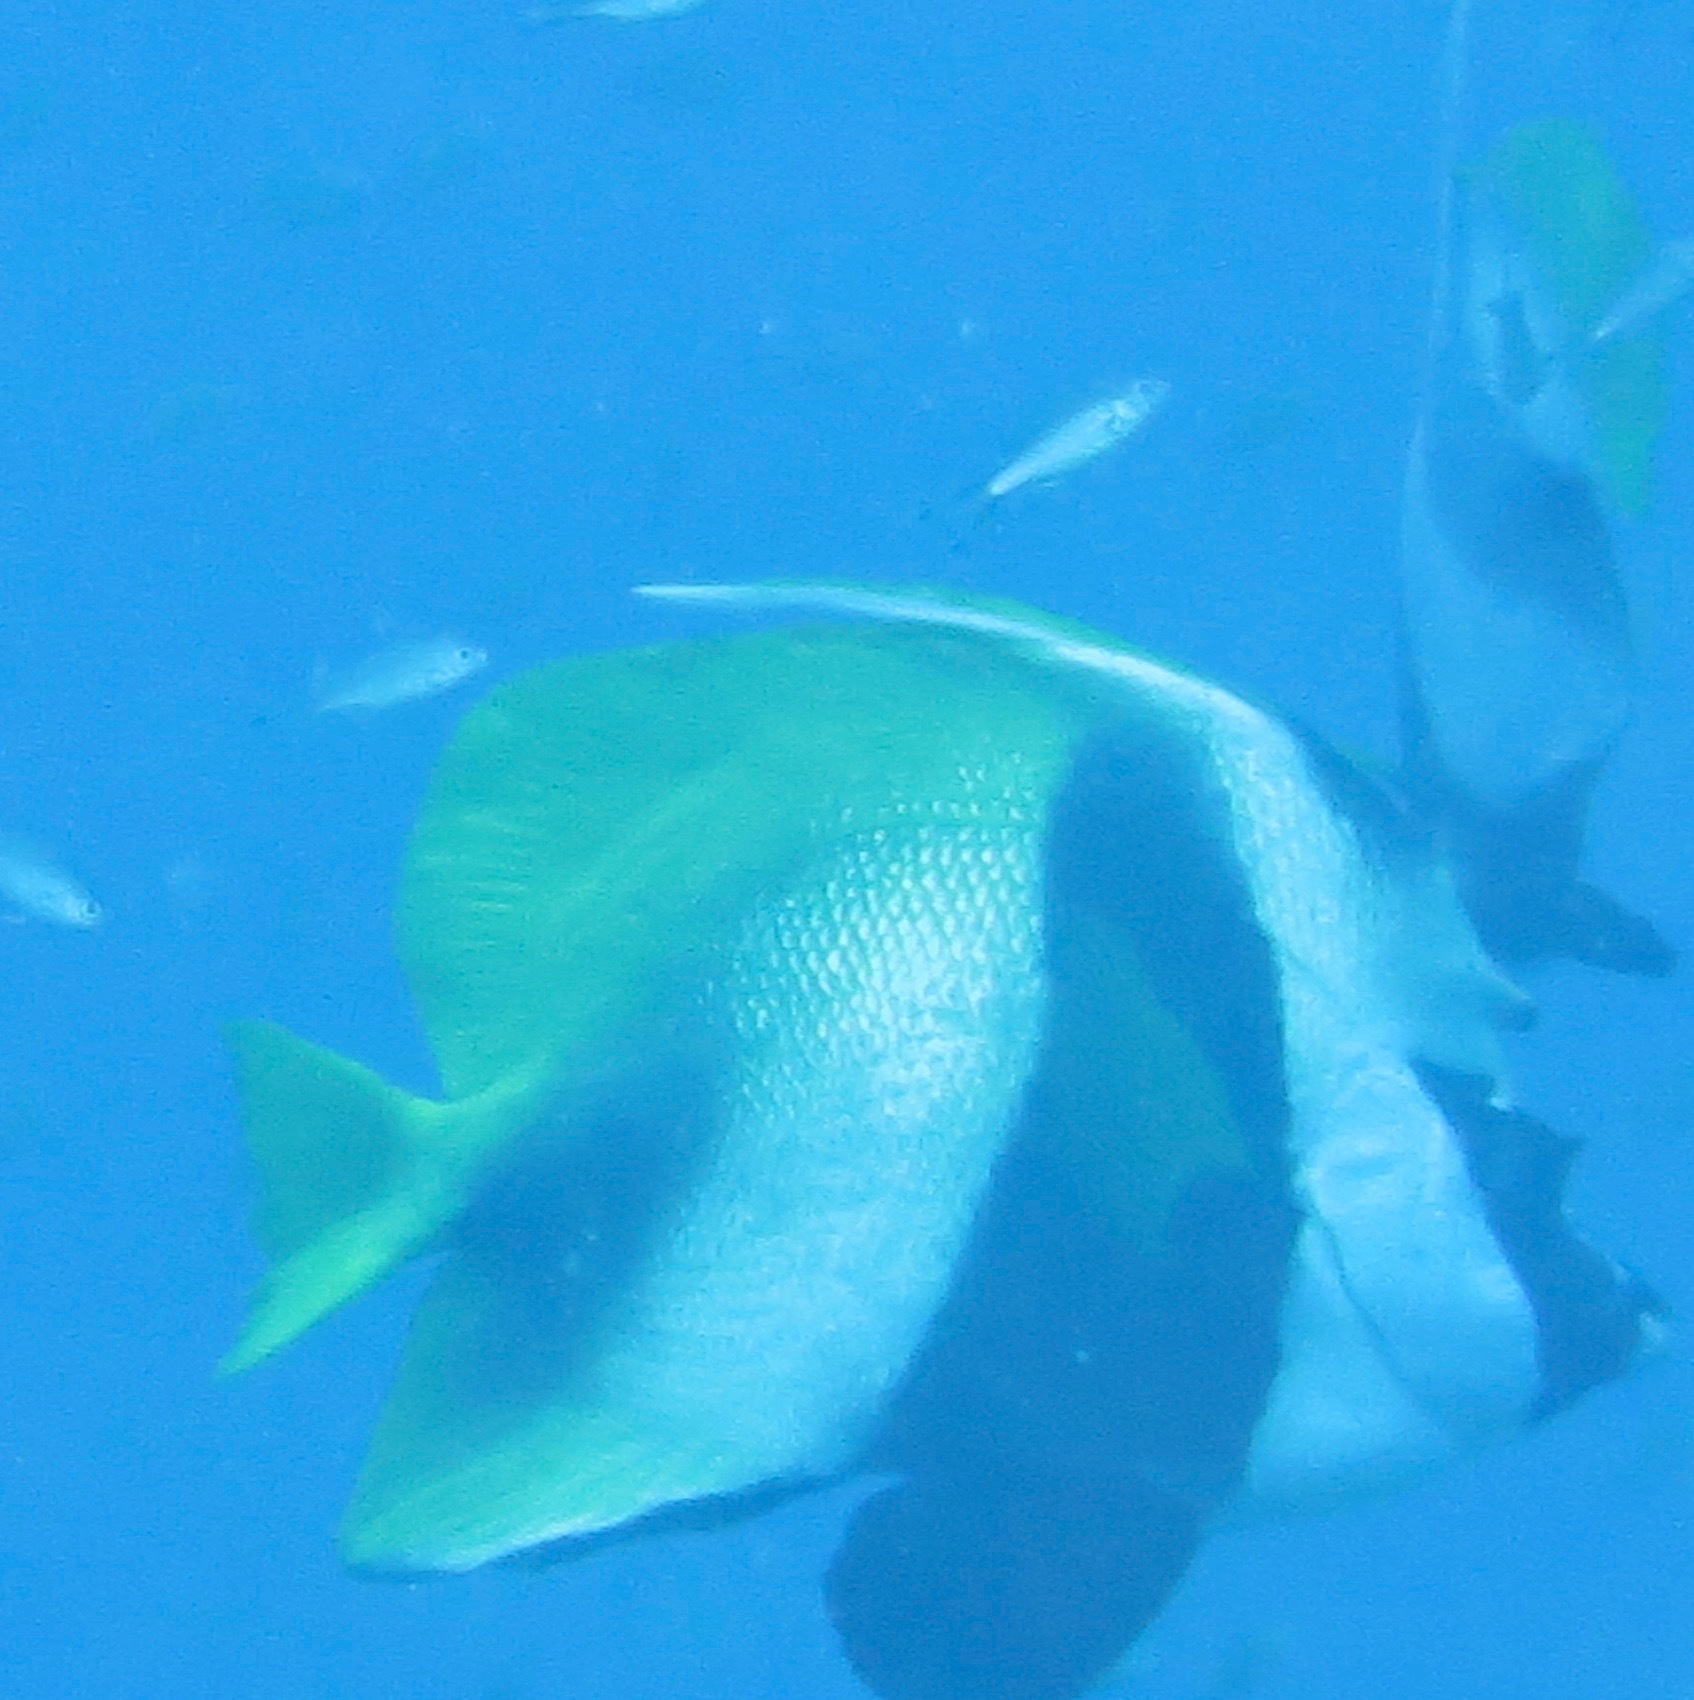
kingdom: Animalia
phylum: Chordata
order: Perciformes
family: Chaetodontidae
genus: Heniochus
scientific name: Heniochus monoceros
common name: Masked bannerfish
